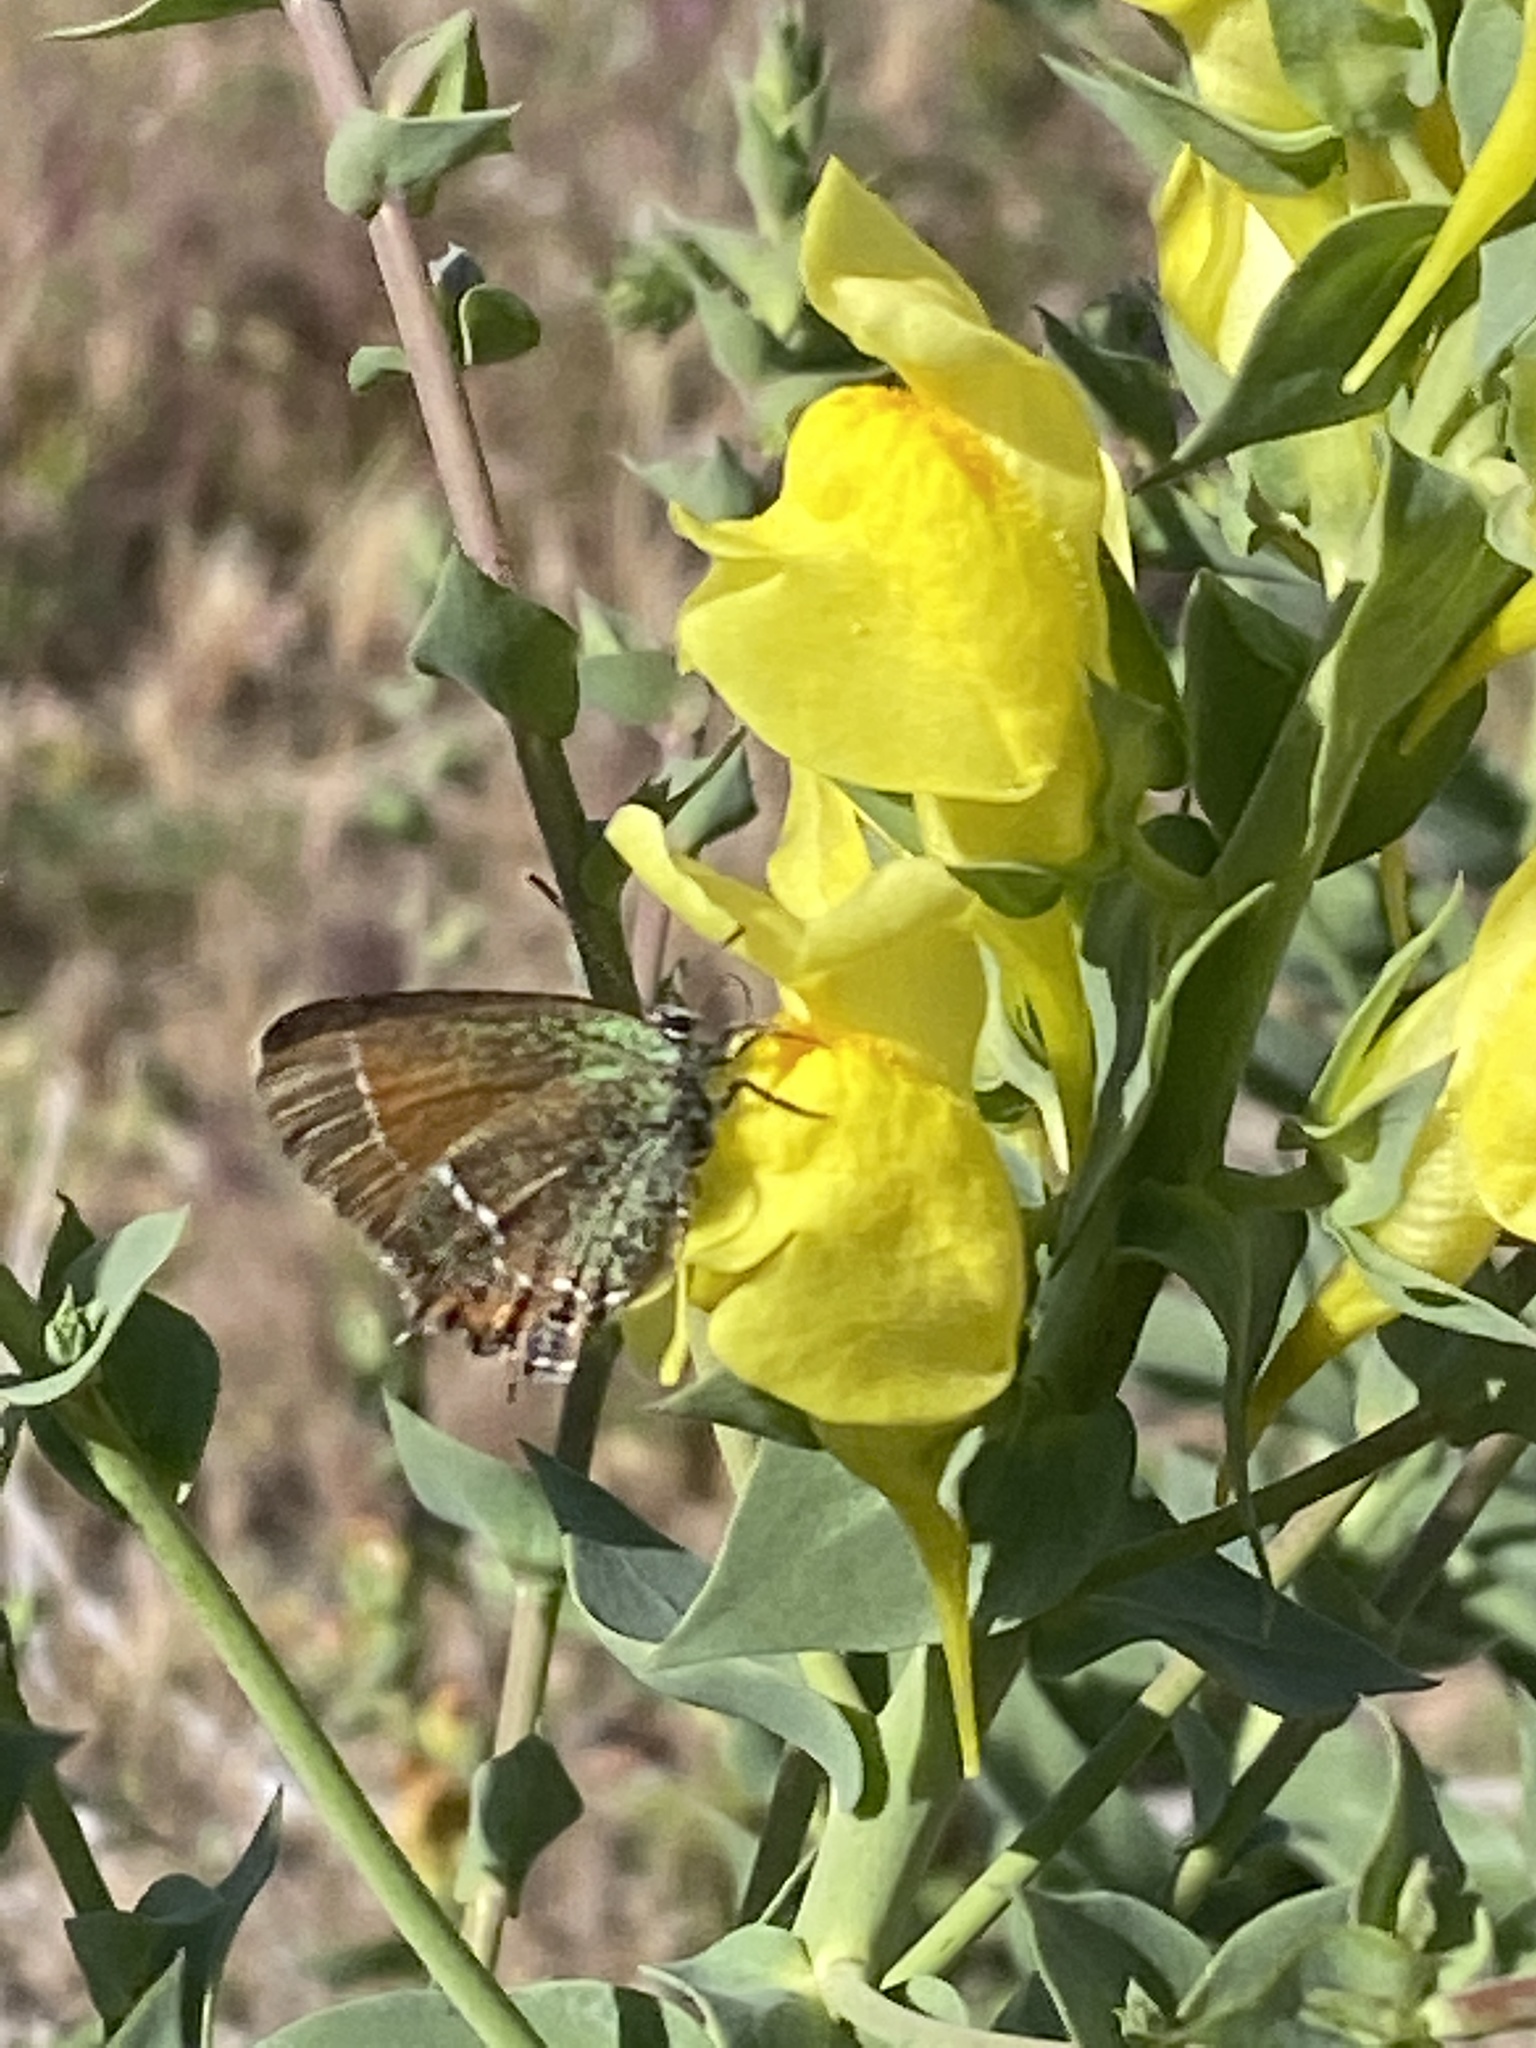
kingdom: Animalia
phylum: Arthropoda
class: Insecta
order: Lepidoptera
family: Lycaenidae
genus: Mitoura
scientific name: Mitoura siva
